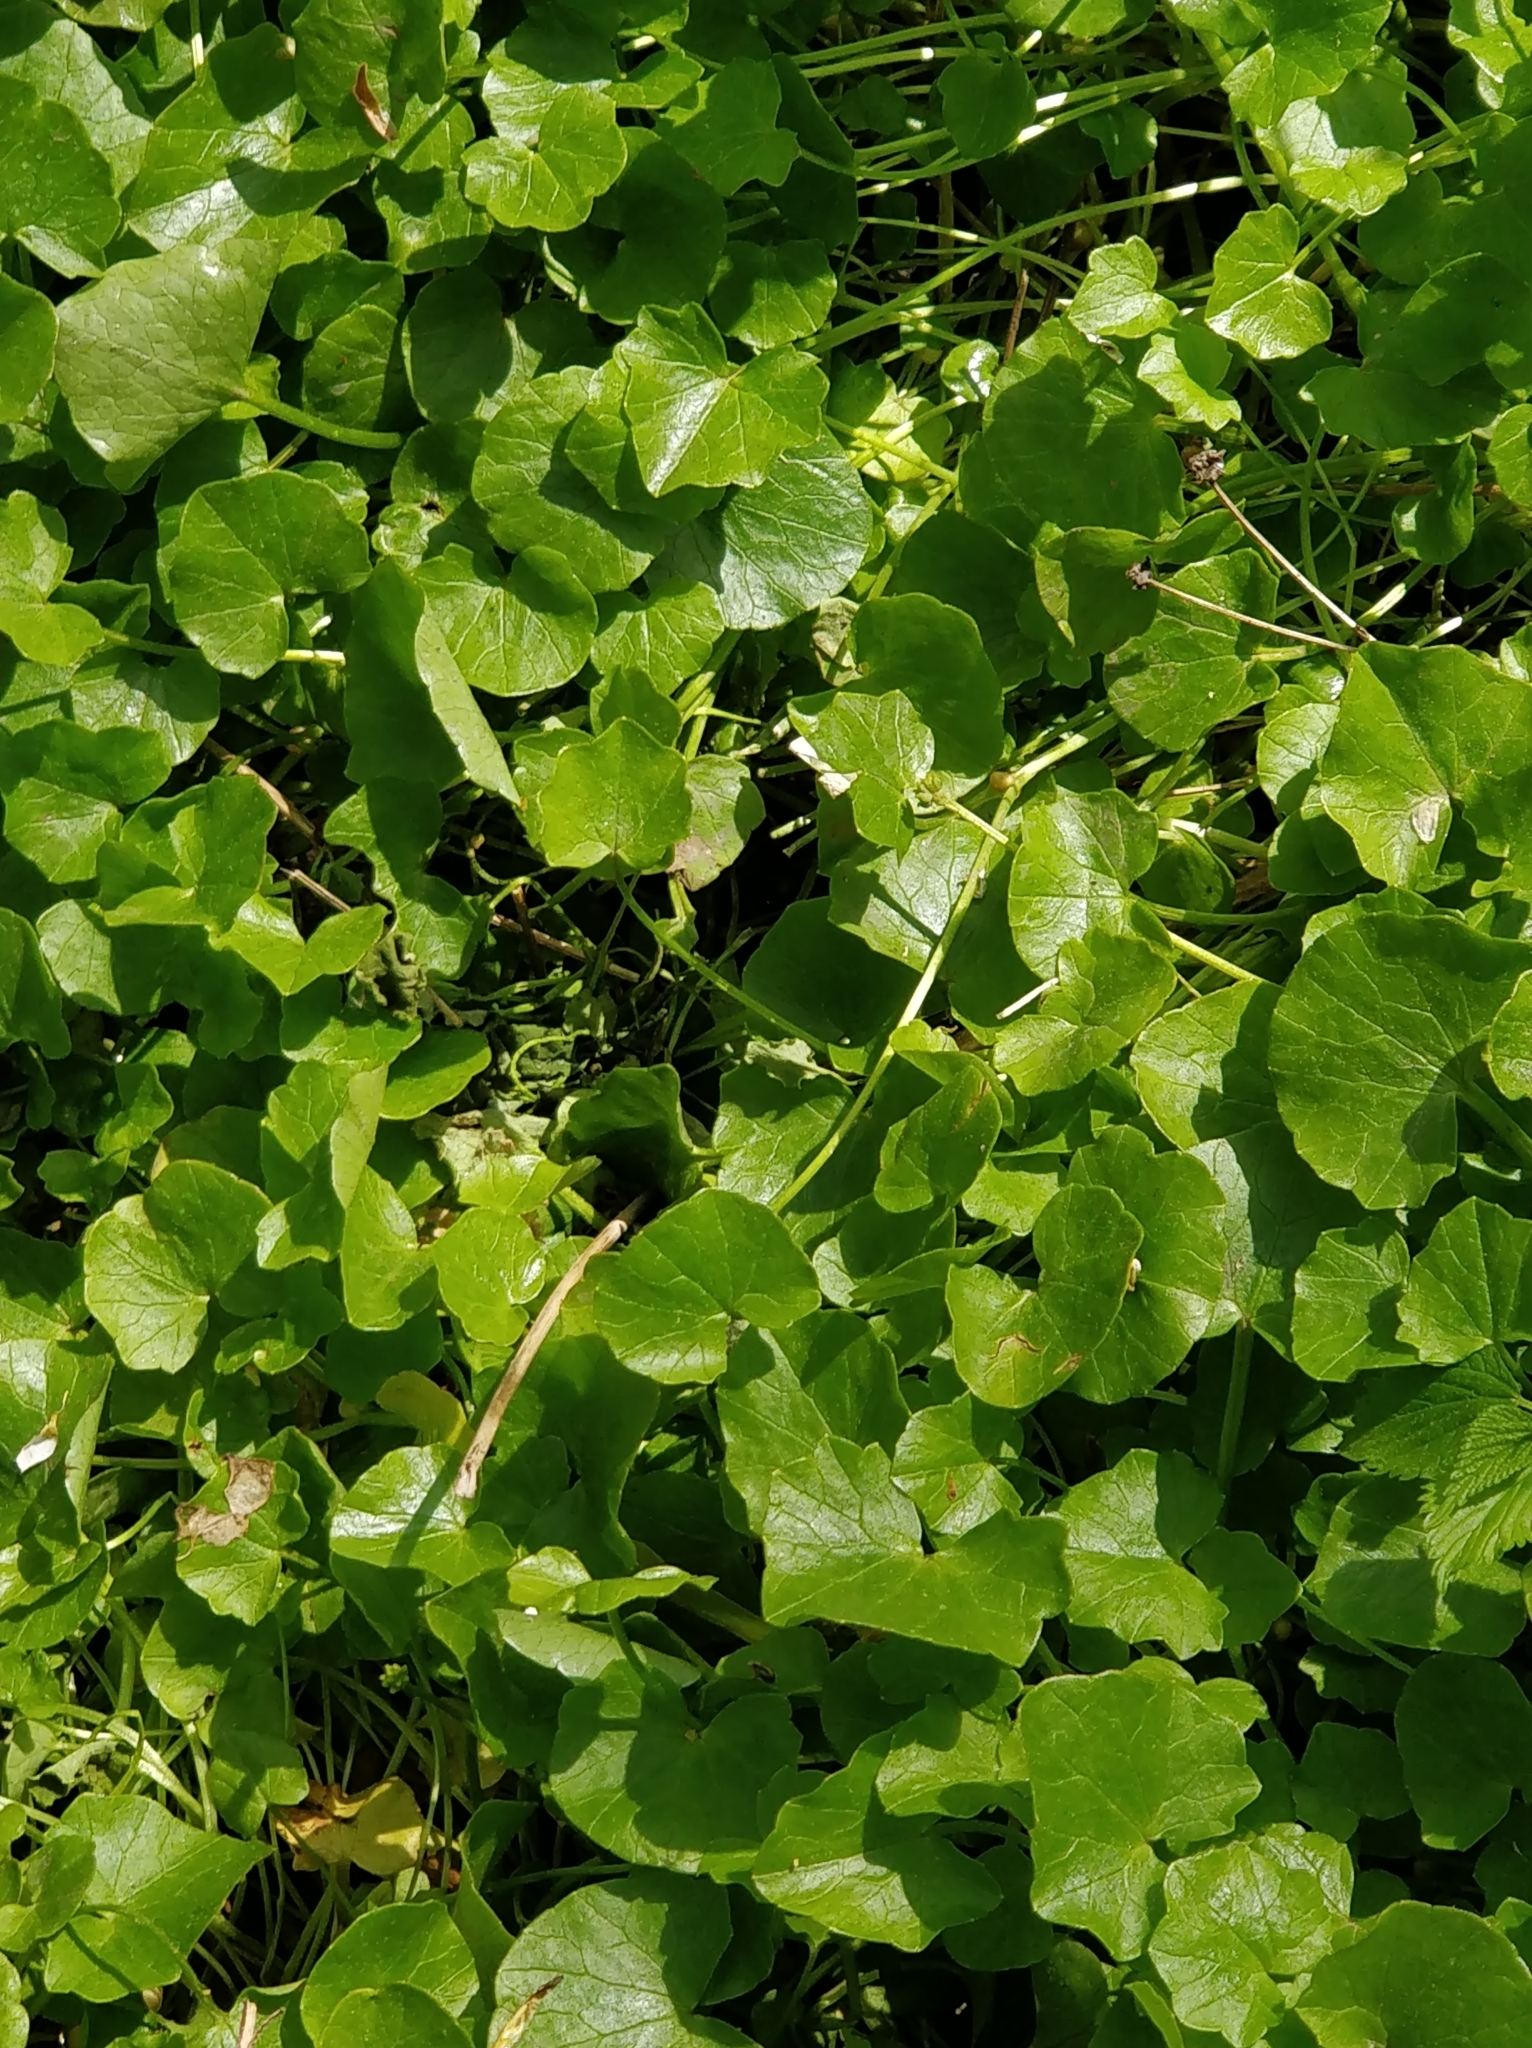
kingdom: Plantae
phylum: Tracheophyta
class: Magnoliopsida
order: Ranunculales
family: Ranunculaceae
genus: Ficaria
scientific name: Ficaria verna
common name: Lesser celandine
